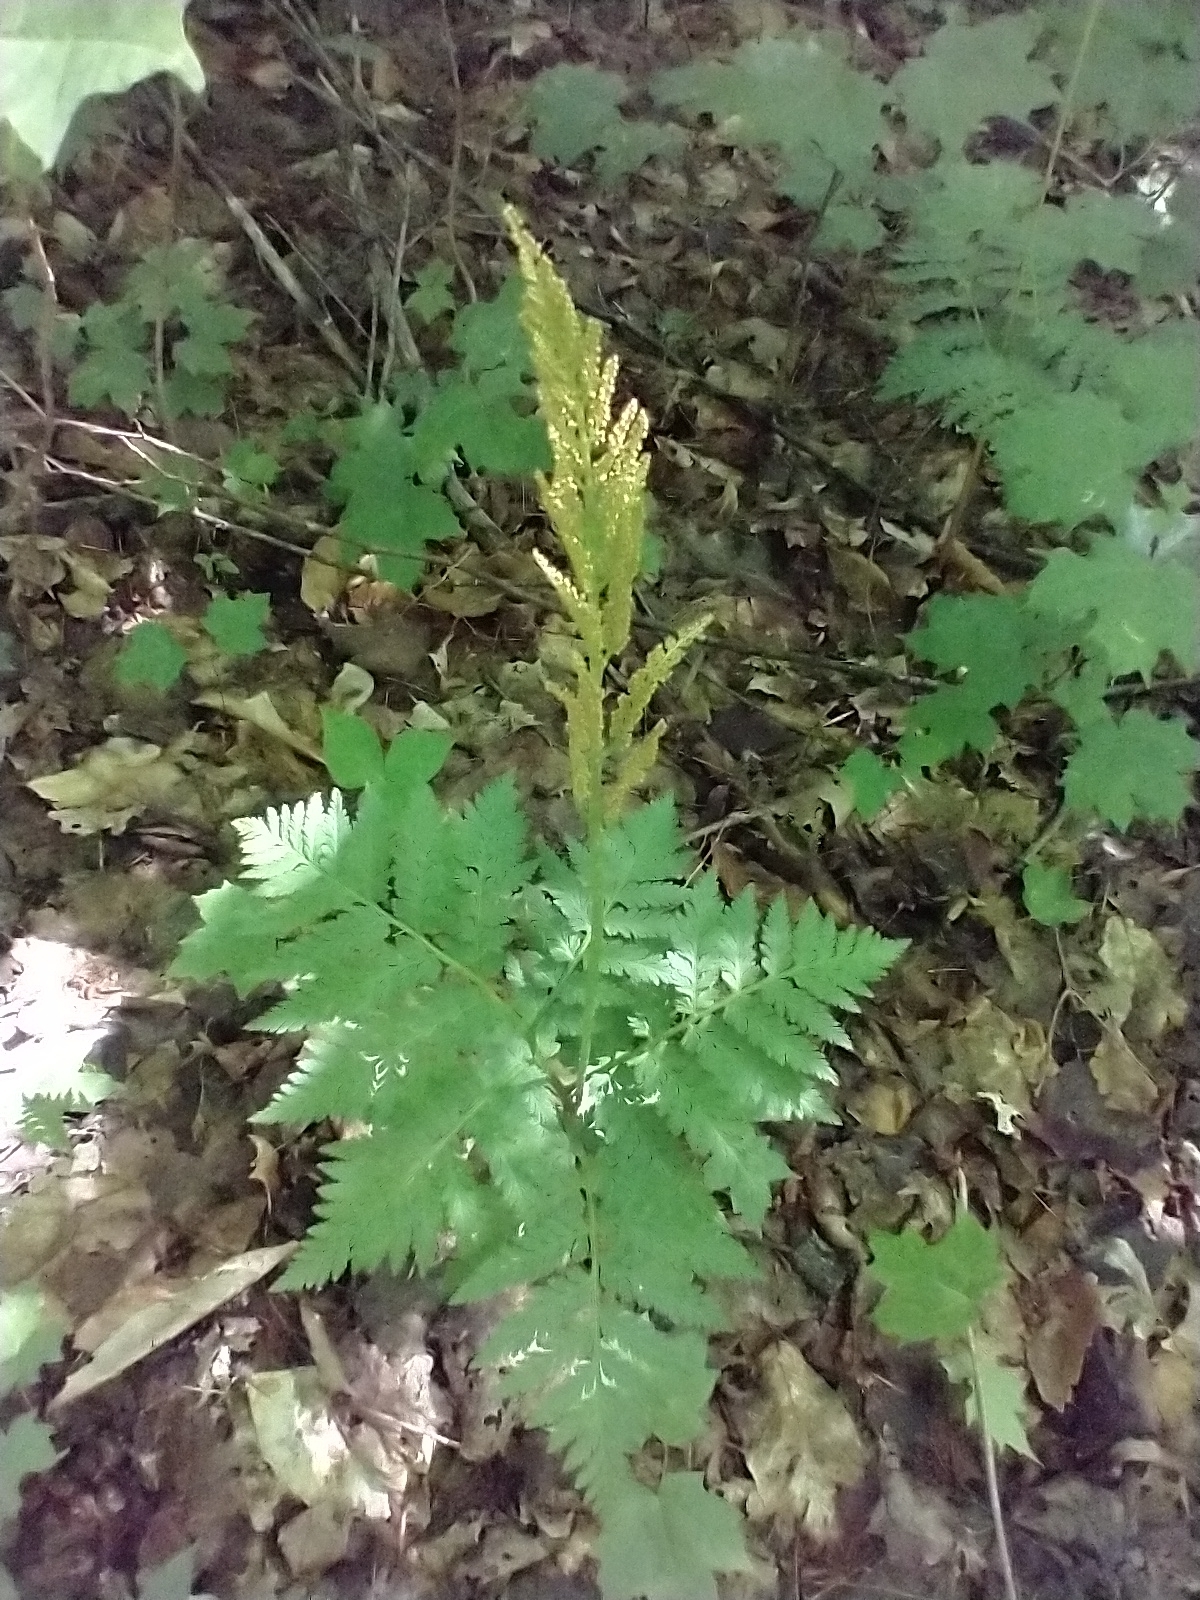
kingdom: Plantae
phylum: Tracheophyta
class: Polypodiopsida
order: Ophioglossales
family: Ophioglossaceae
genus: Botrypus
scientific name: Botrypus virginianus
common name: Common grapefern
